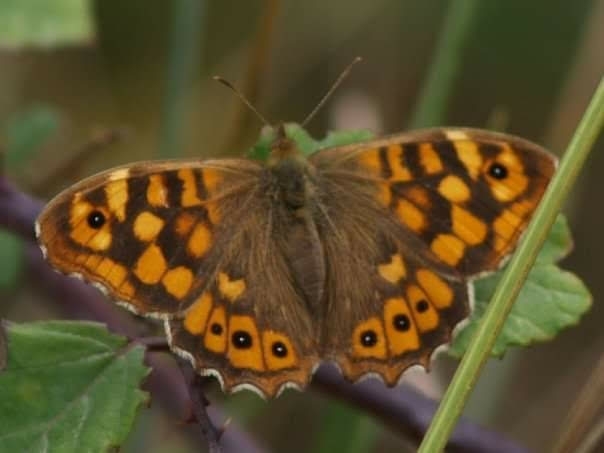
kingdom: Animalia
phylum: Arthropoda
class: Insecta
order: Lepidoptera
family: Nymphalidae
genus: Pararge
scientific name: Pararge aegeria
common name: Speckled wood
